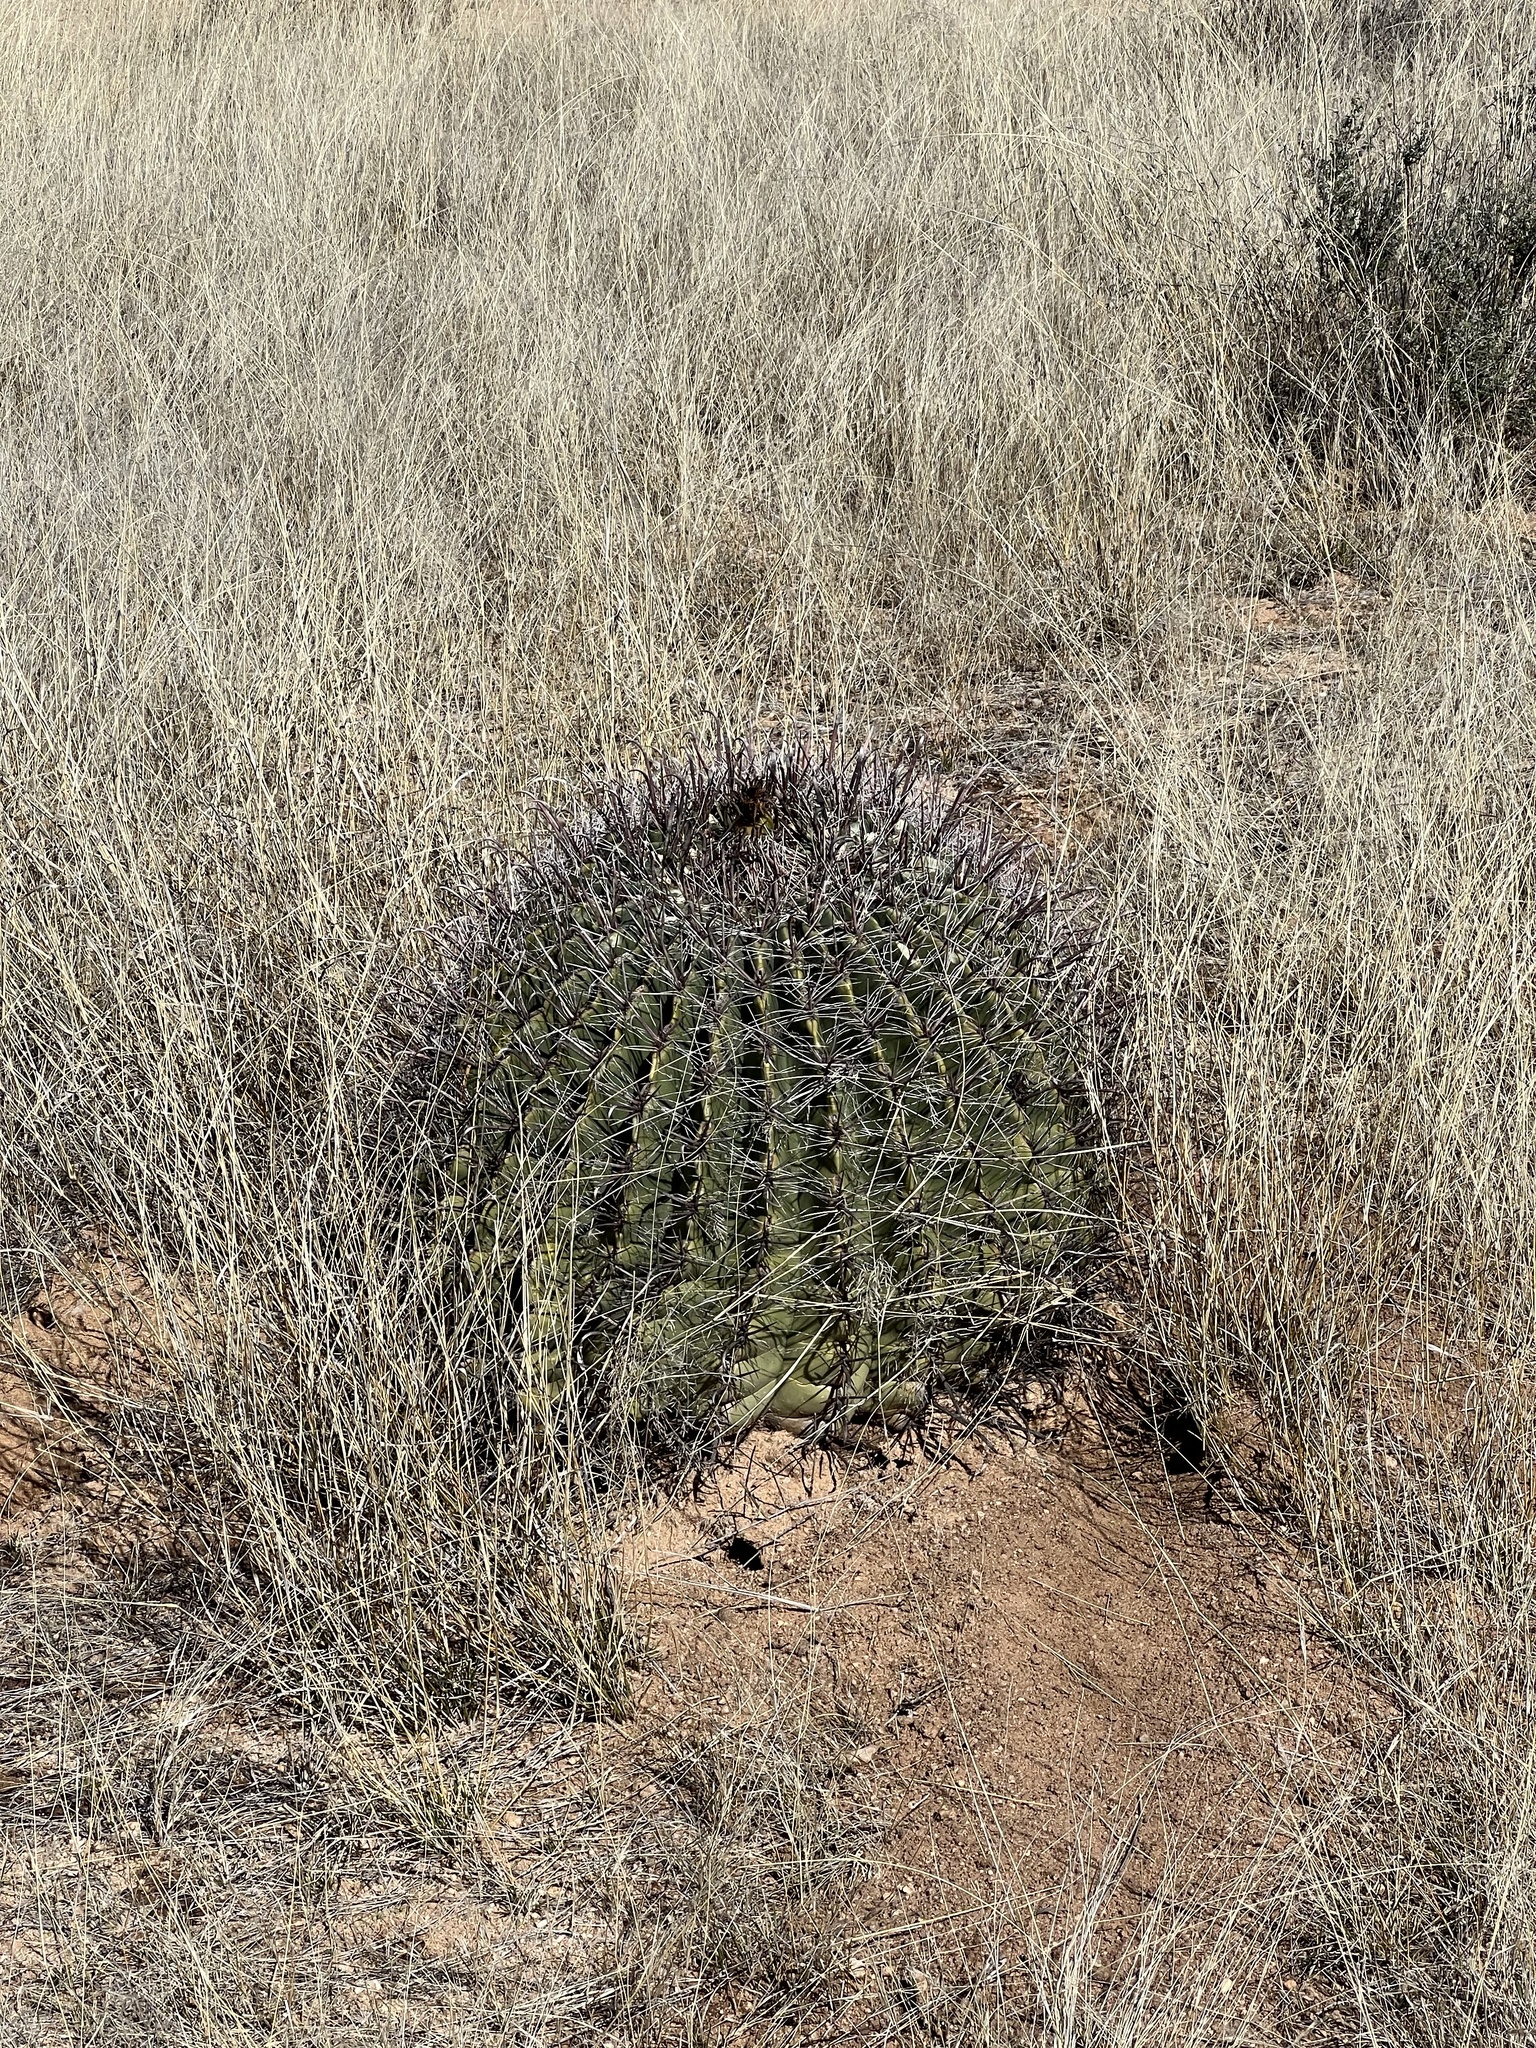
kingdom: Plantae
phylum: Tracheophyta
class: Magnoliopsida
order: Caryophyllales
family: Cactaceae
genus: Ferocactus
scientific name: Ferocactus wislizeni
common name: Candy barrel cactus
